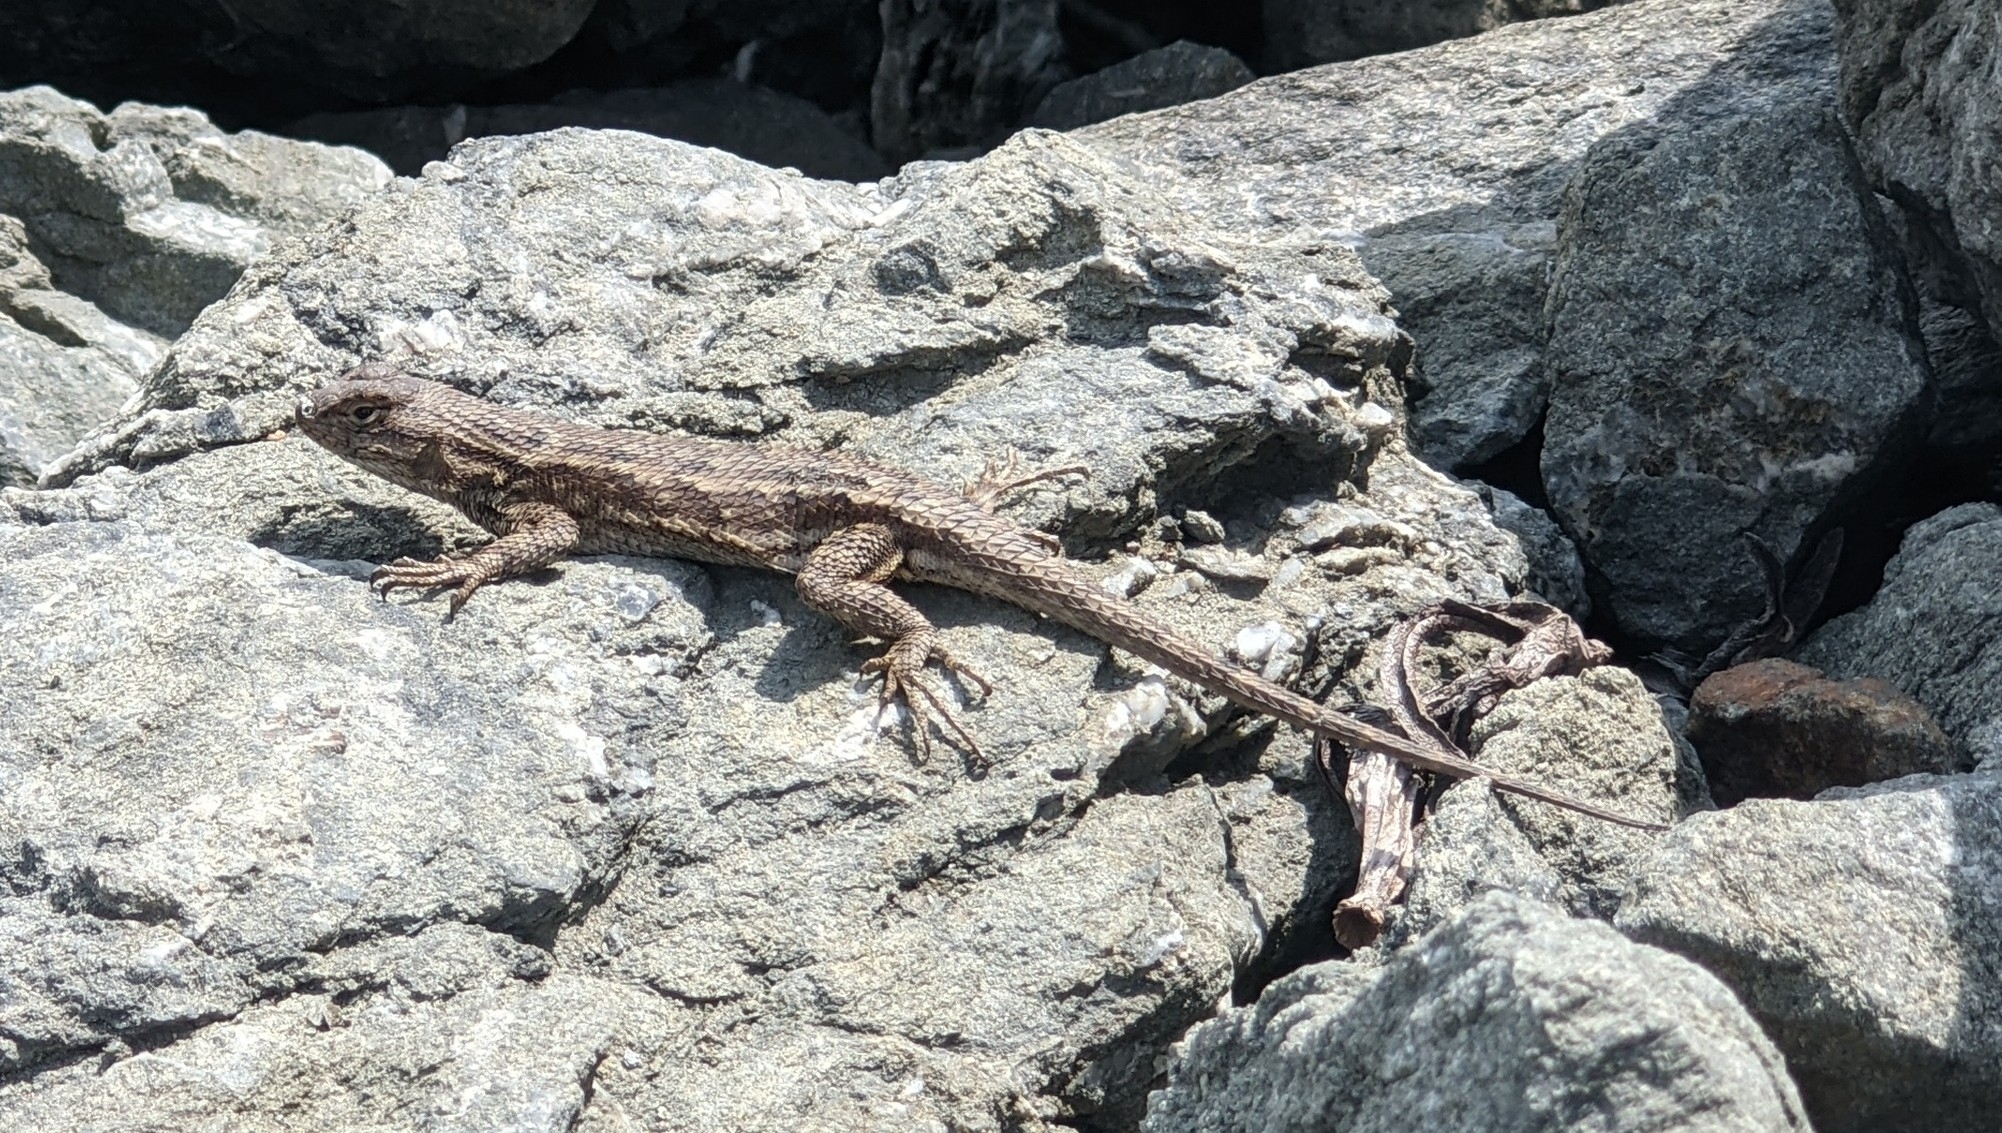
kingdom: Animalia
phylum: Chordata
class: Squamata
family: Phrynosomatidae
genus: Sceloporus
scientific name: Sceloporus occidentalis
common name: Western fence lizard
